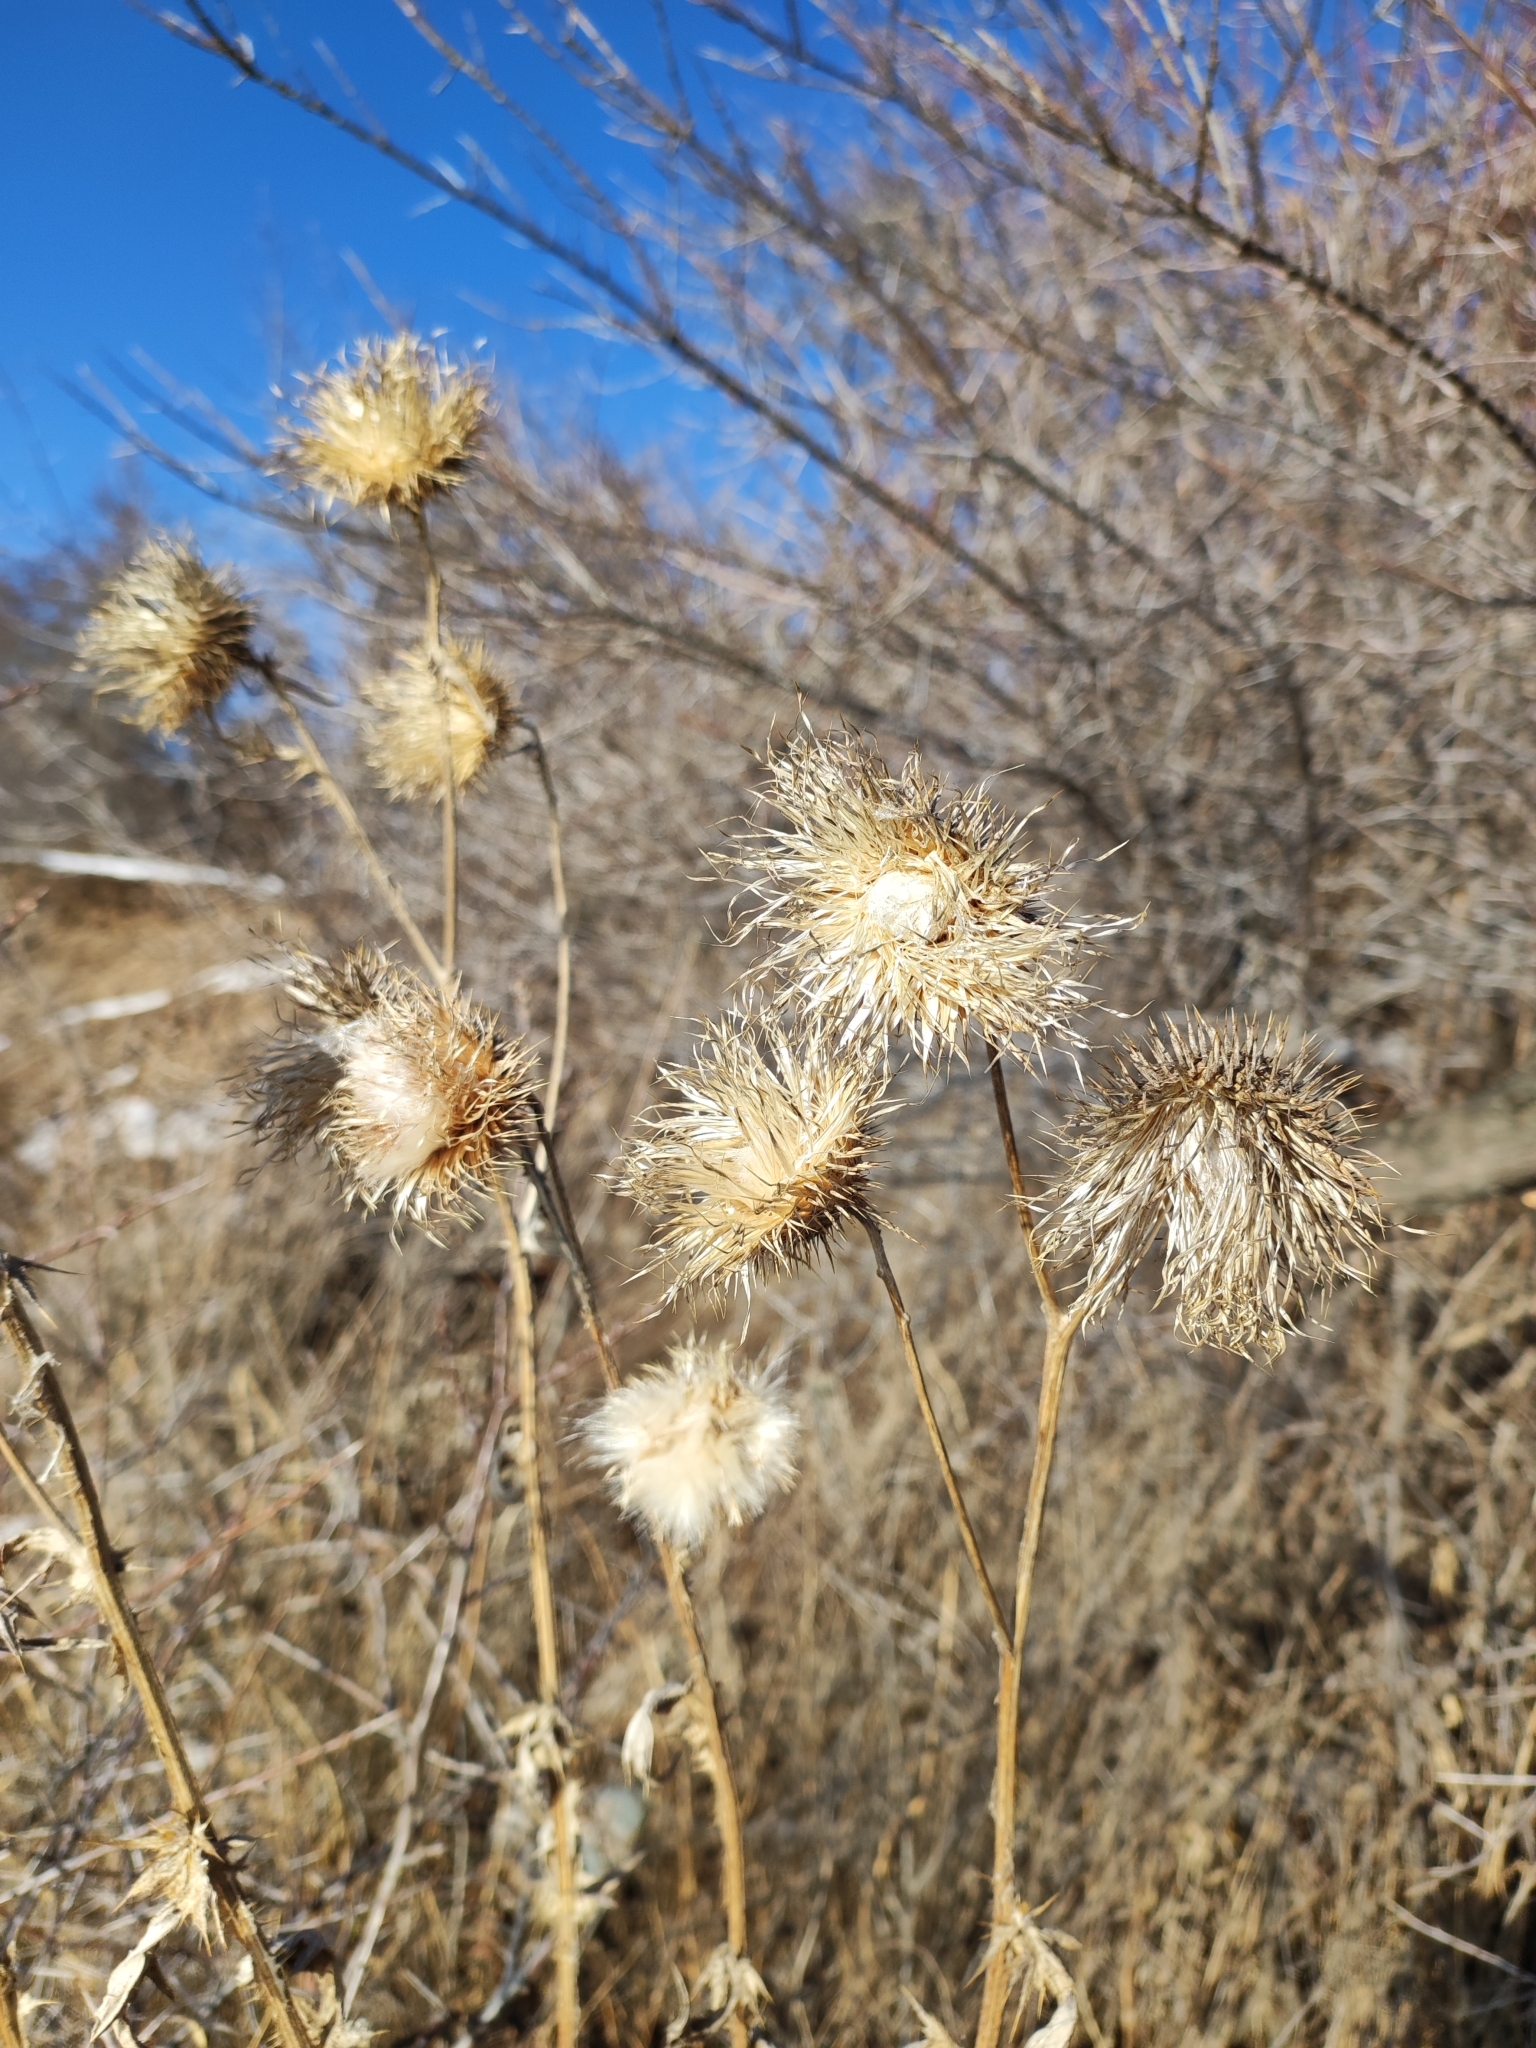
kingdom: Plantae
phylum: Tracheophyta
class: Magnoliopsida
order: Asterales
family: Asteraceae
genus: Cirsium
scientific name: Cirsium vulgare
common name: Bull thistle
